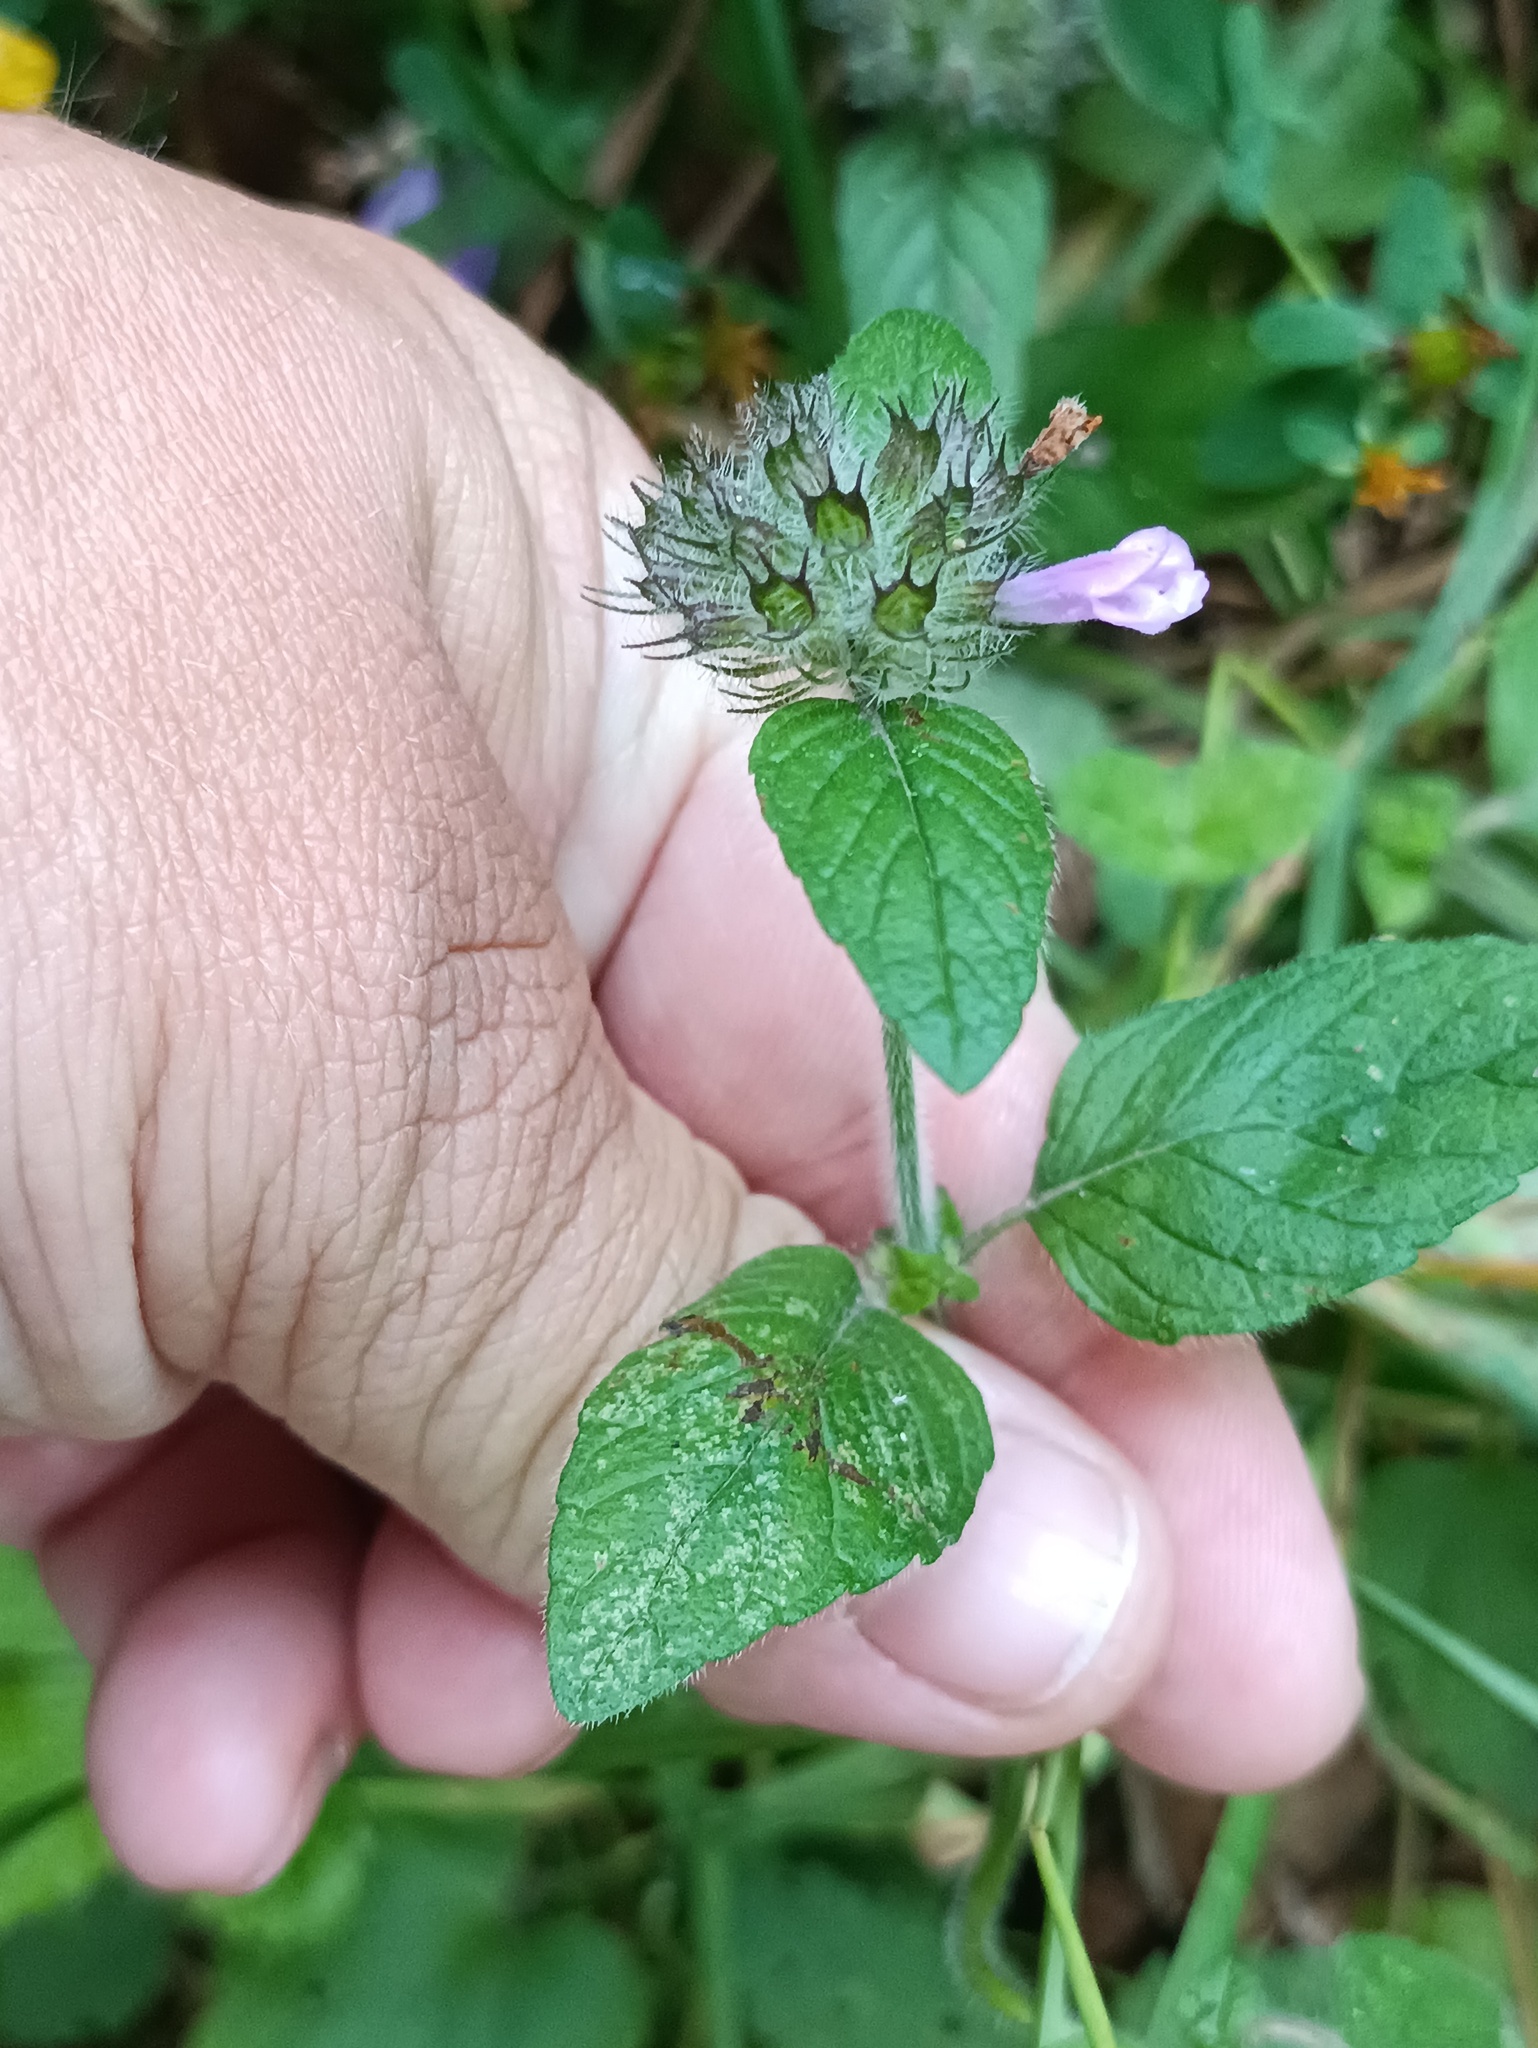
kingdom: Plantae
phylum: Tracheophyta
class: Magnoliopsida
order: Lamiales
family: Lamiaceae
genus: Clinopodium
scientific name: Clinopodium vulgare
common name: Wild basil
